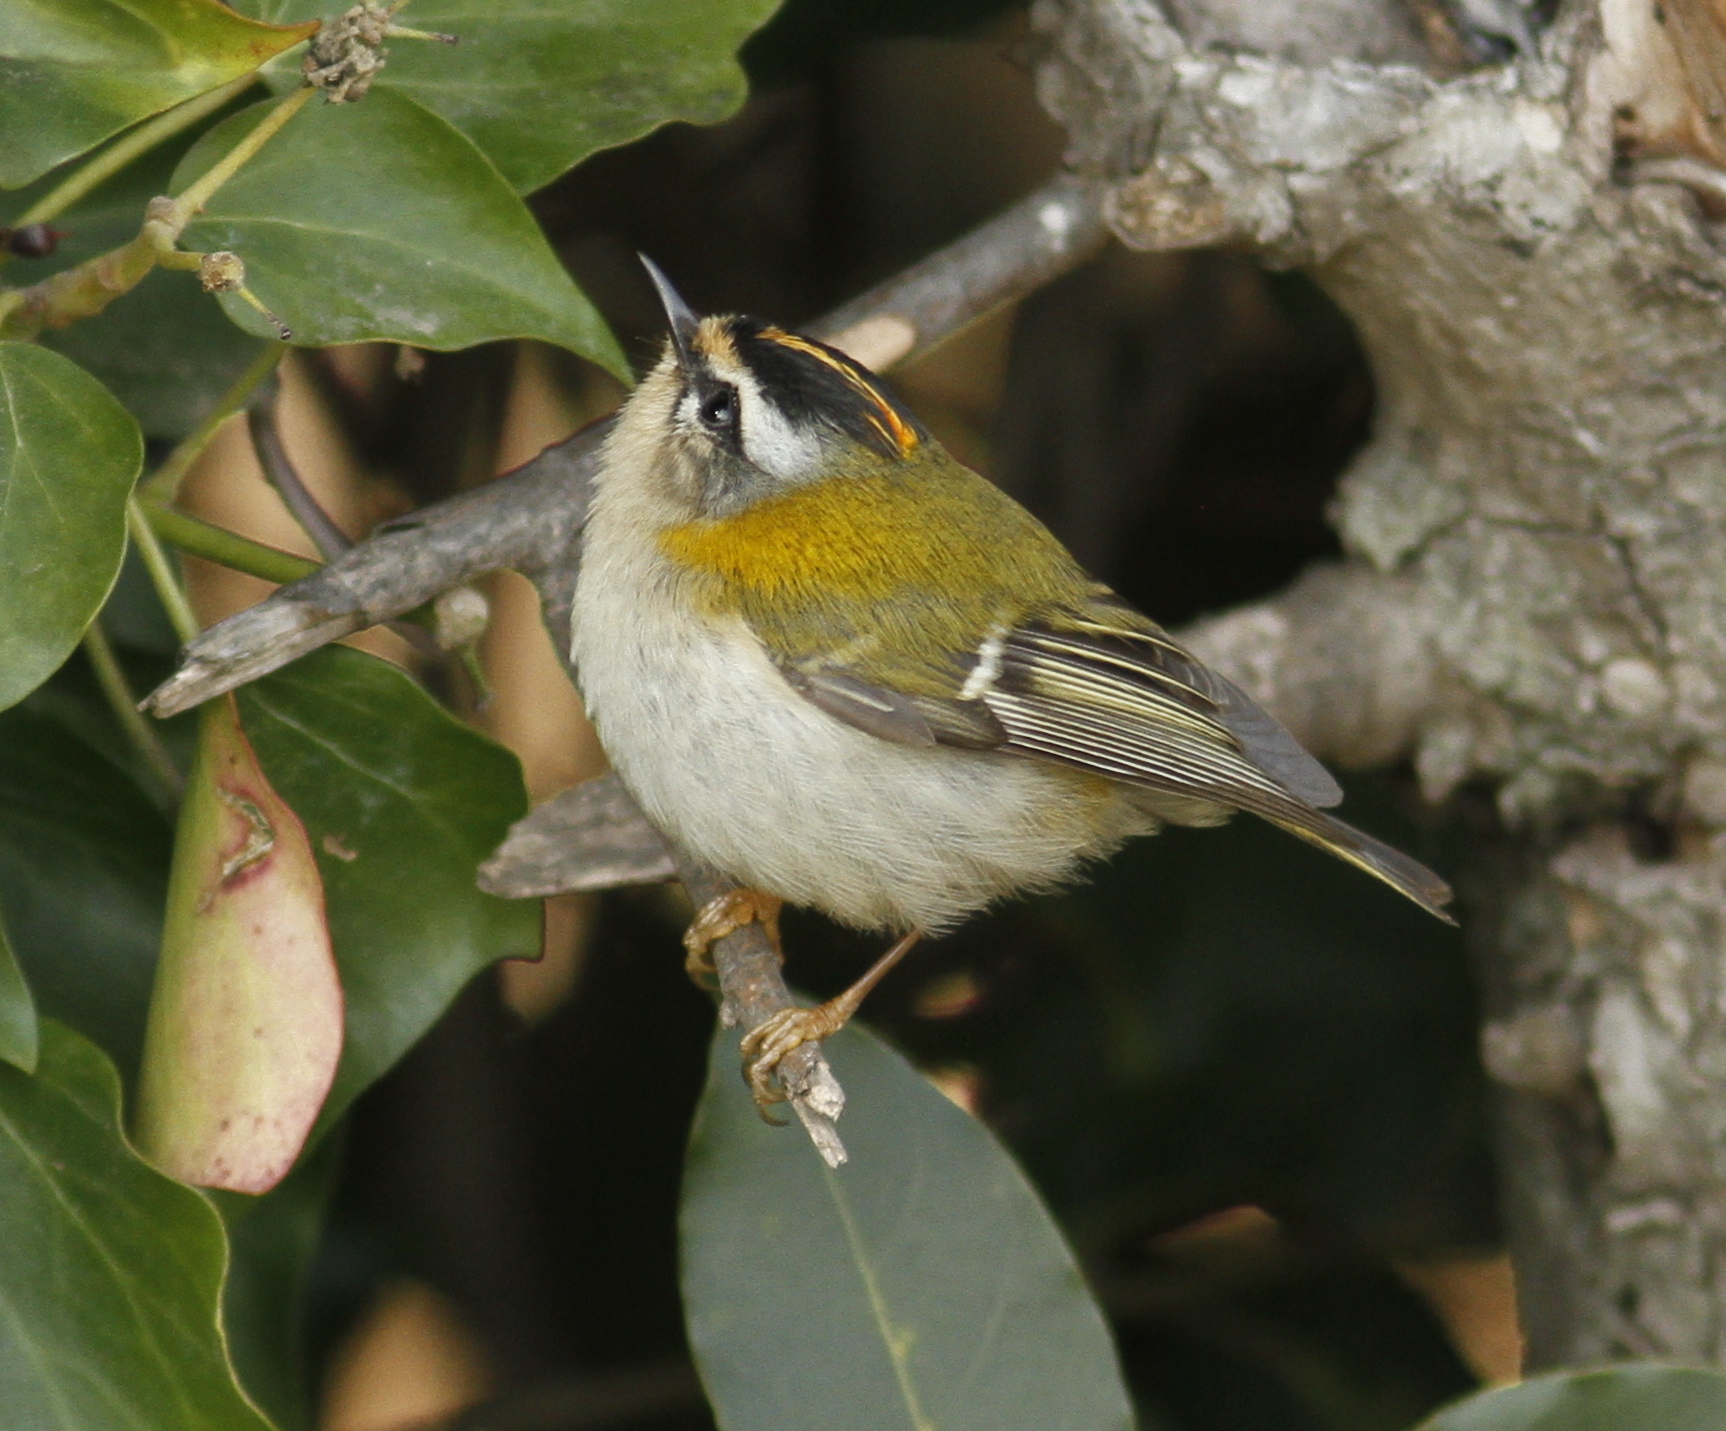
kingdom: Animalia
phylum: Chordata
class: Aves
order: Passeriformes
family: Regulidae
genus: Regulus
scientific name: Regulus ignicapilla
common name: Firecrest
